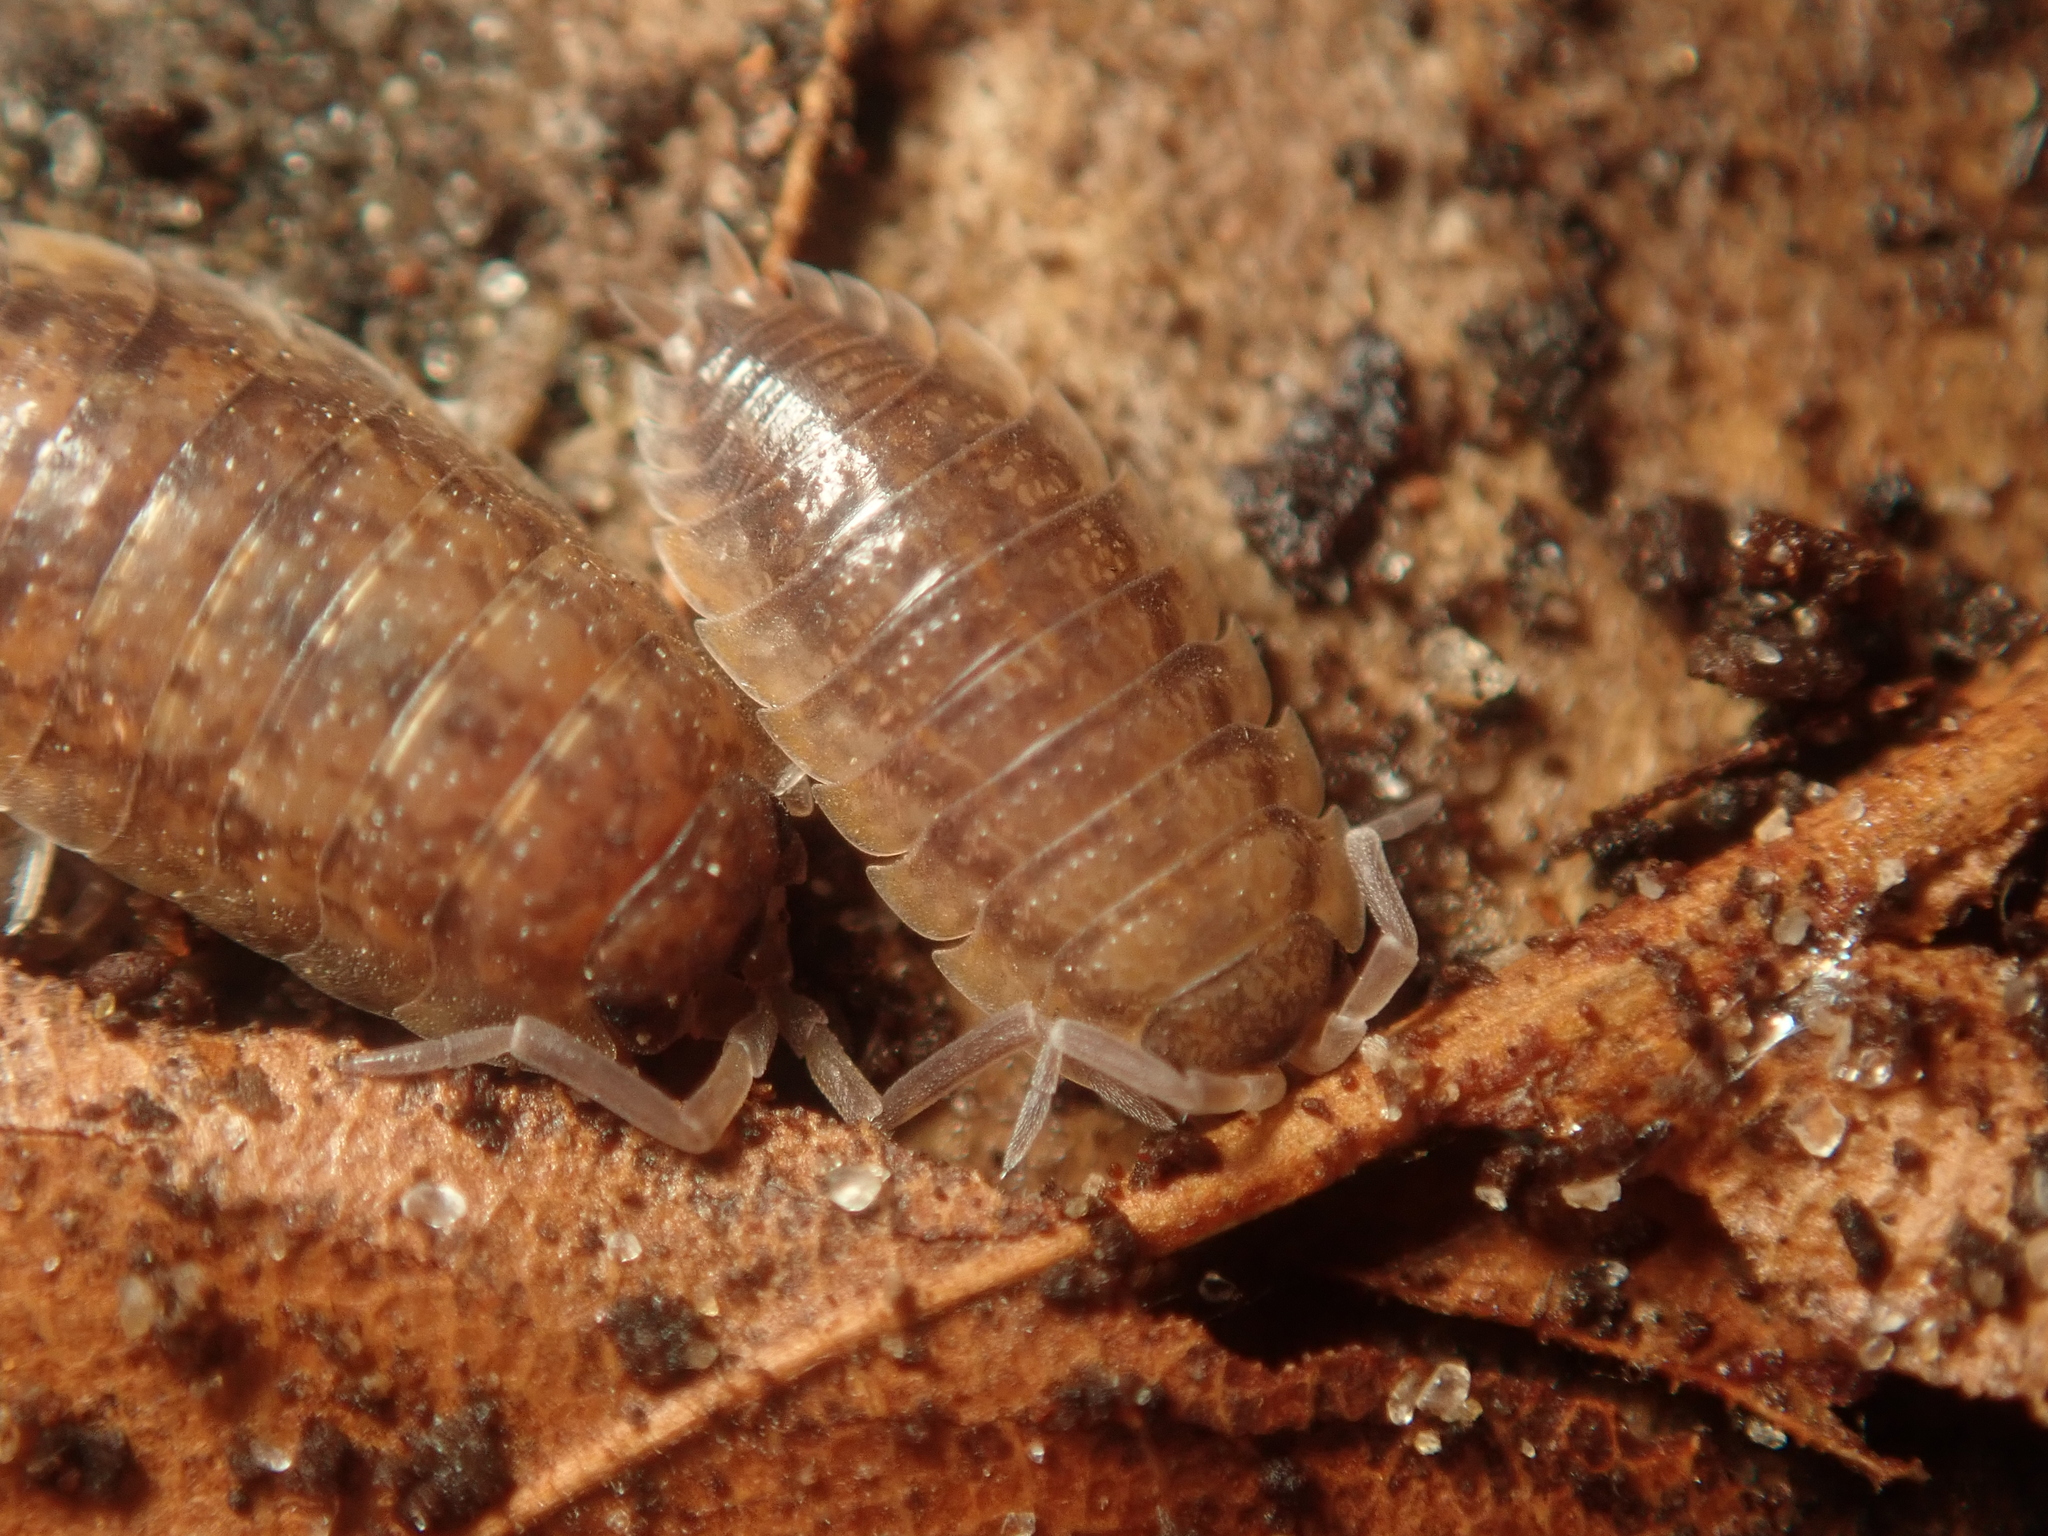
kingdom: Animalia
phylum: Arthropoda
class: Malacostraca
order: Isopoda
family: Porcellionidae
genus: Porcellio
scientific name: Porcellio scaber
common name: Common rough woodlouse
